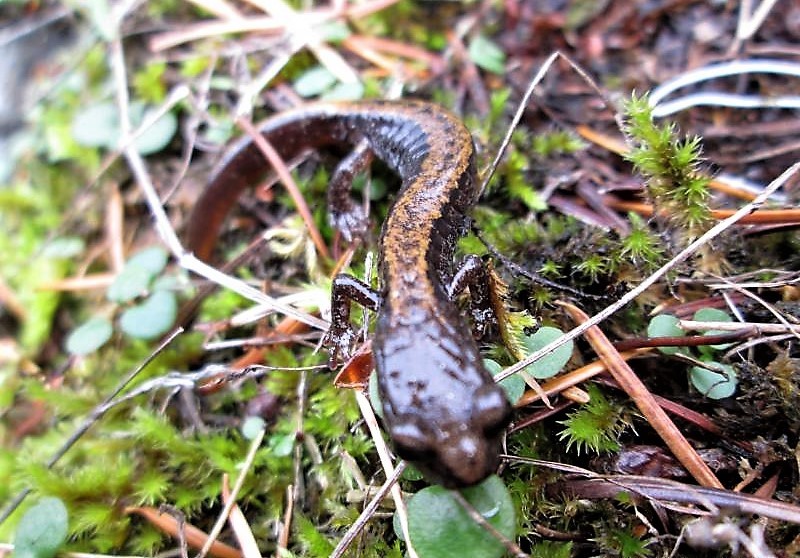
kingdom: Animalia
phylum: Chordata
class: Amphibia
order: Caudata
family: Plethodontidae
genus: Plethodon
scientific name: Plethodon larselli
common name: Larch mountain salamander
